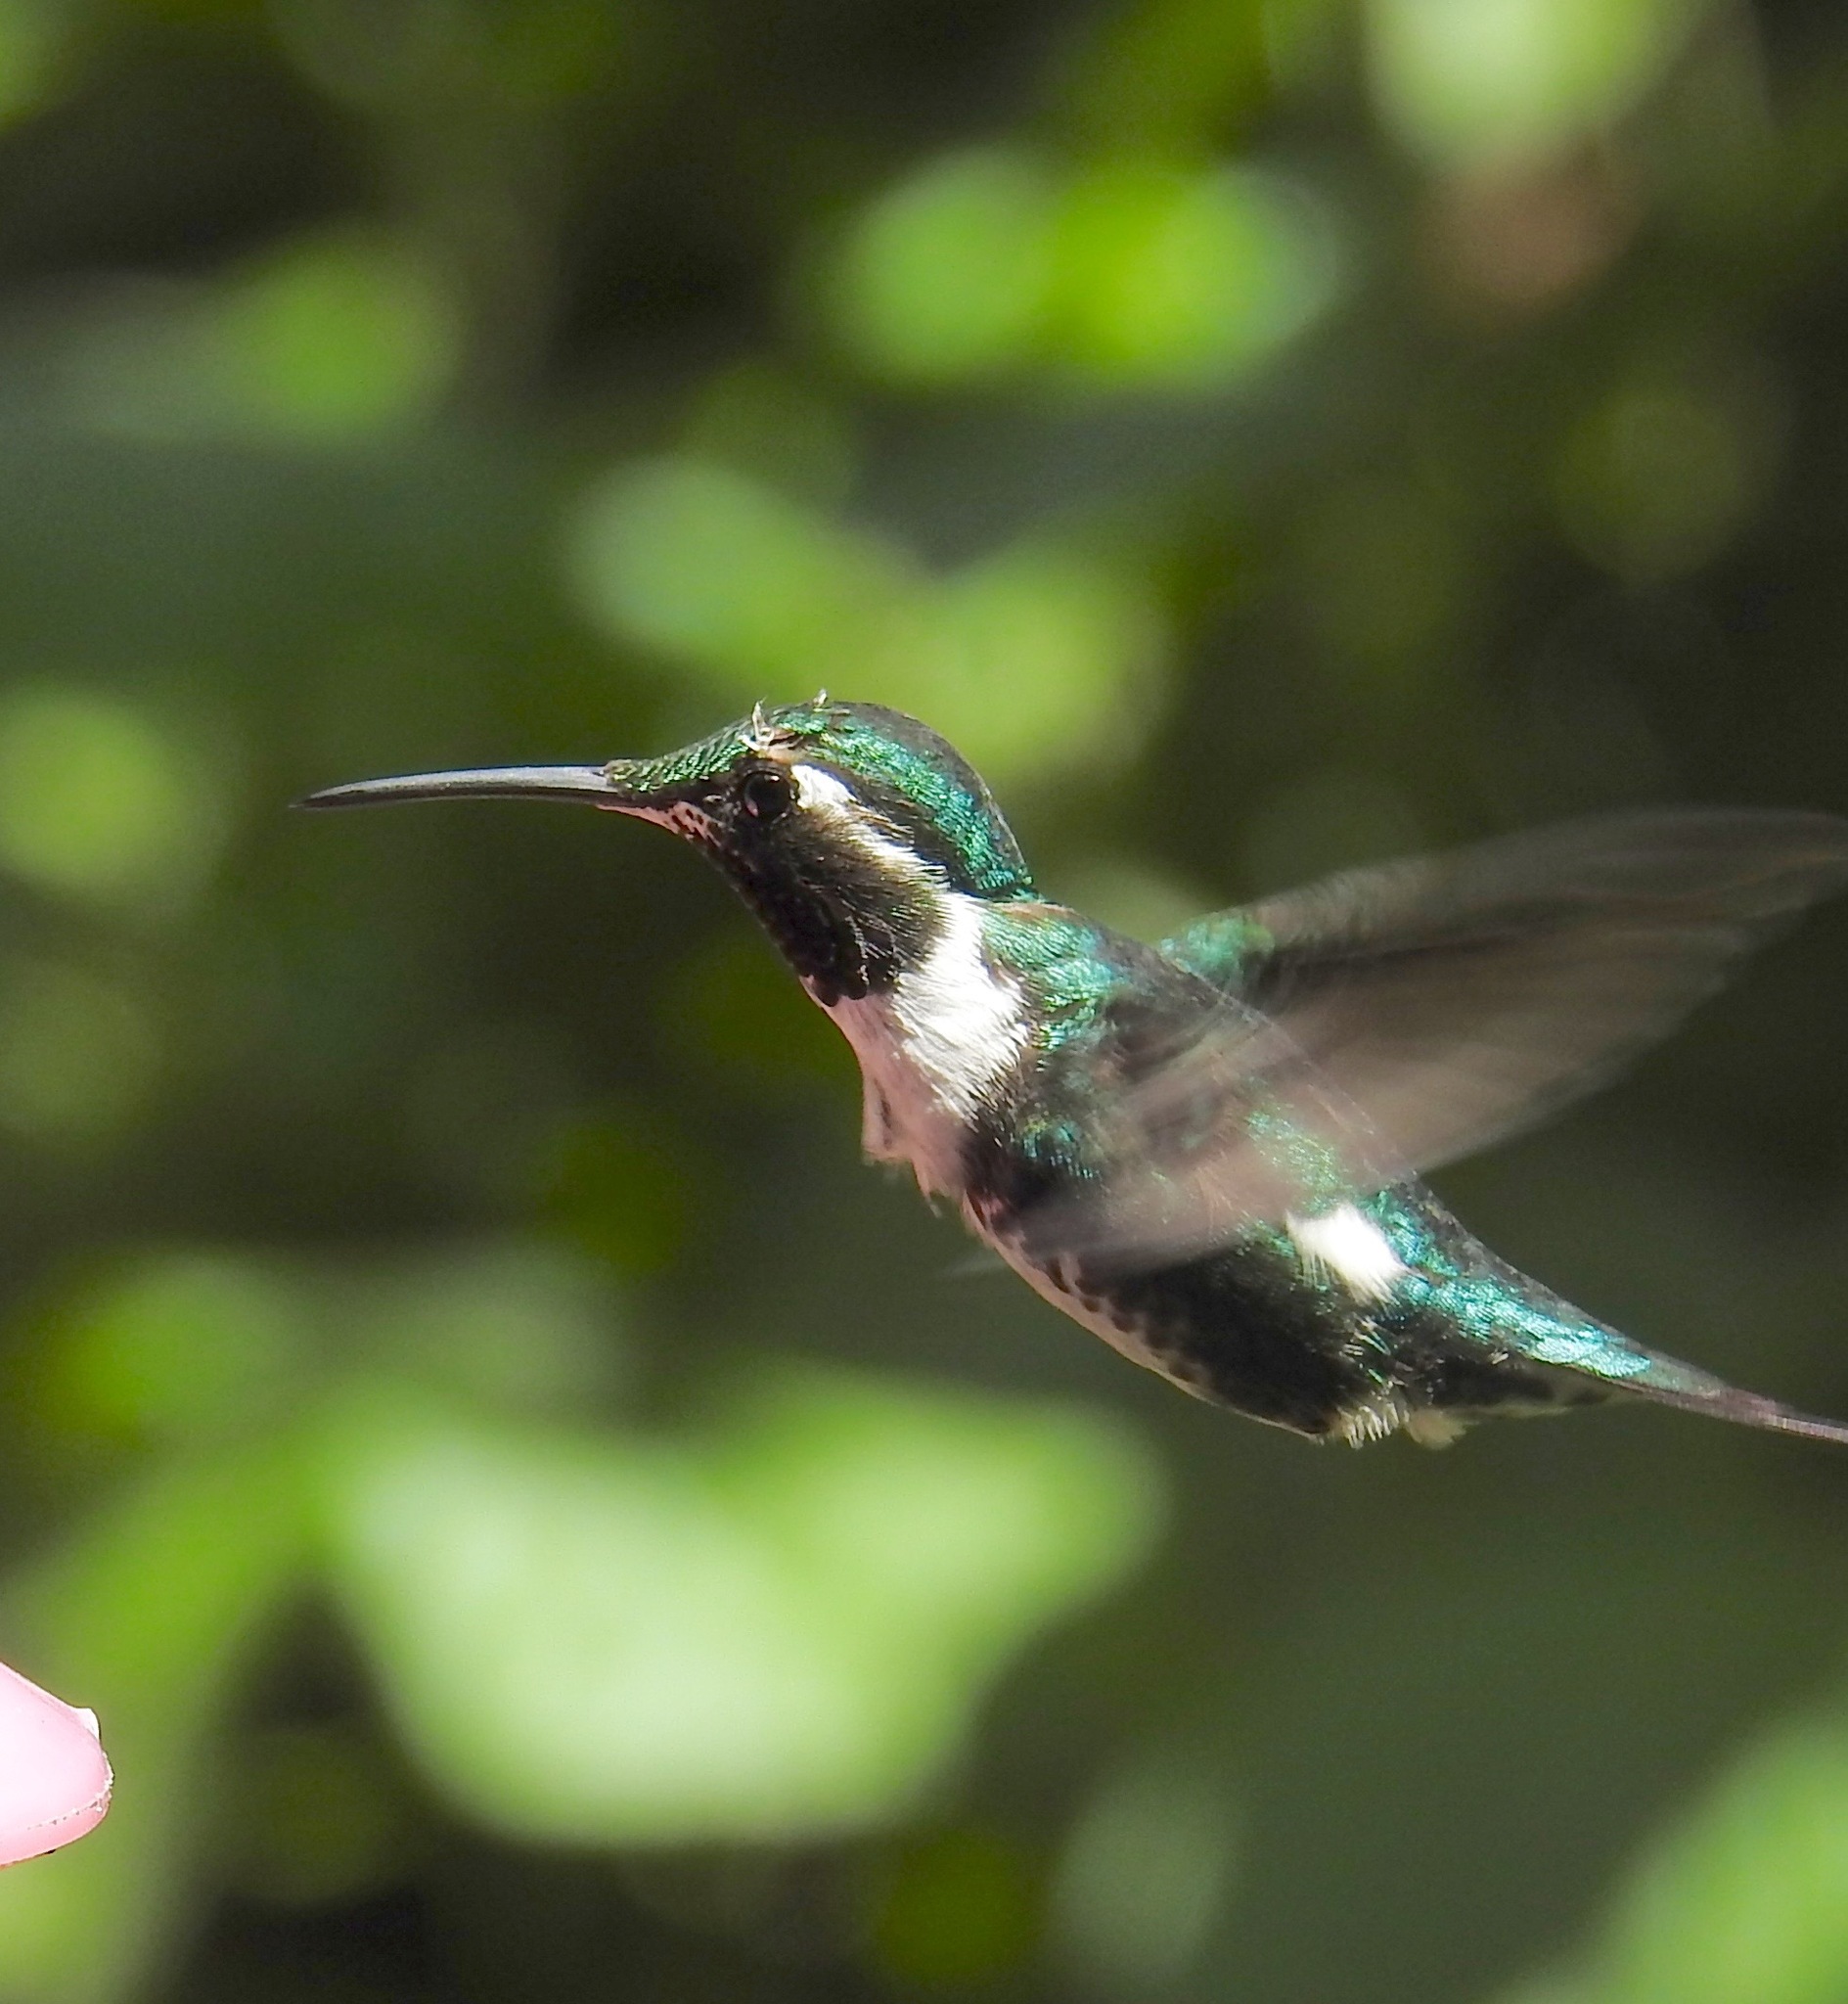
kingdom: Animalia
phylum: Chordata
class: Aves
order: Apodiformes
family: Trochilidae
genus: Chaetocercus
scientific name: Chaetocercus mulsant
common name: White-bellied woodstar
